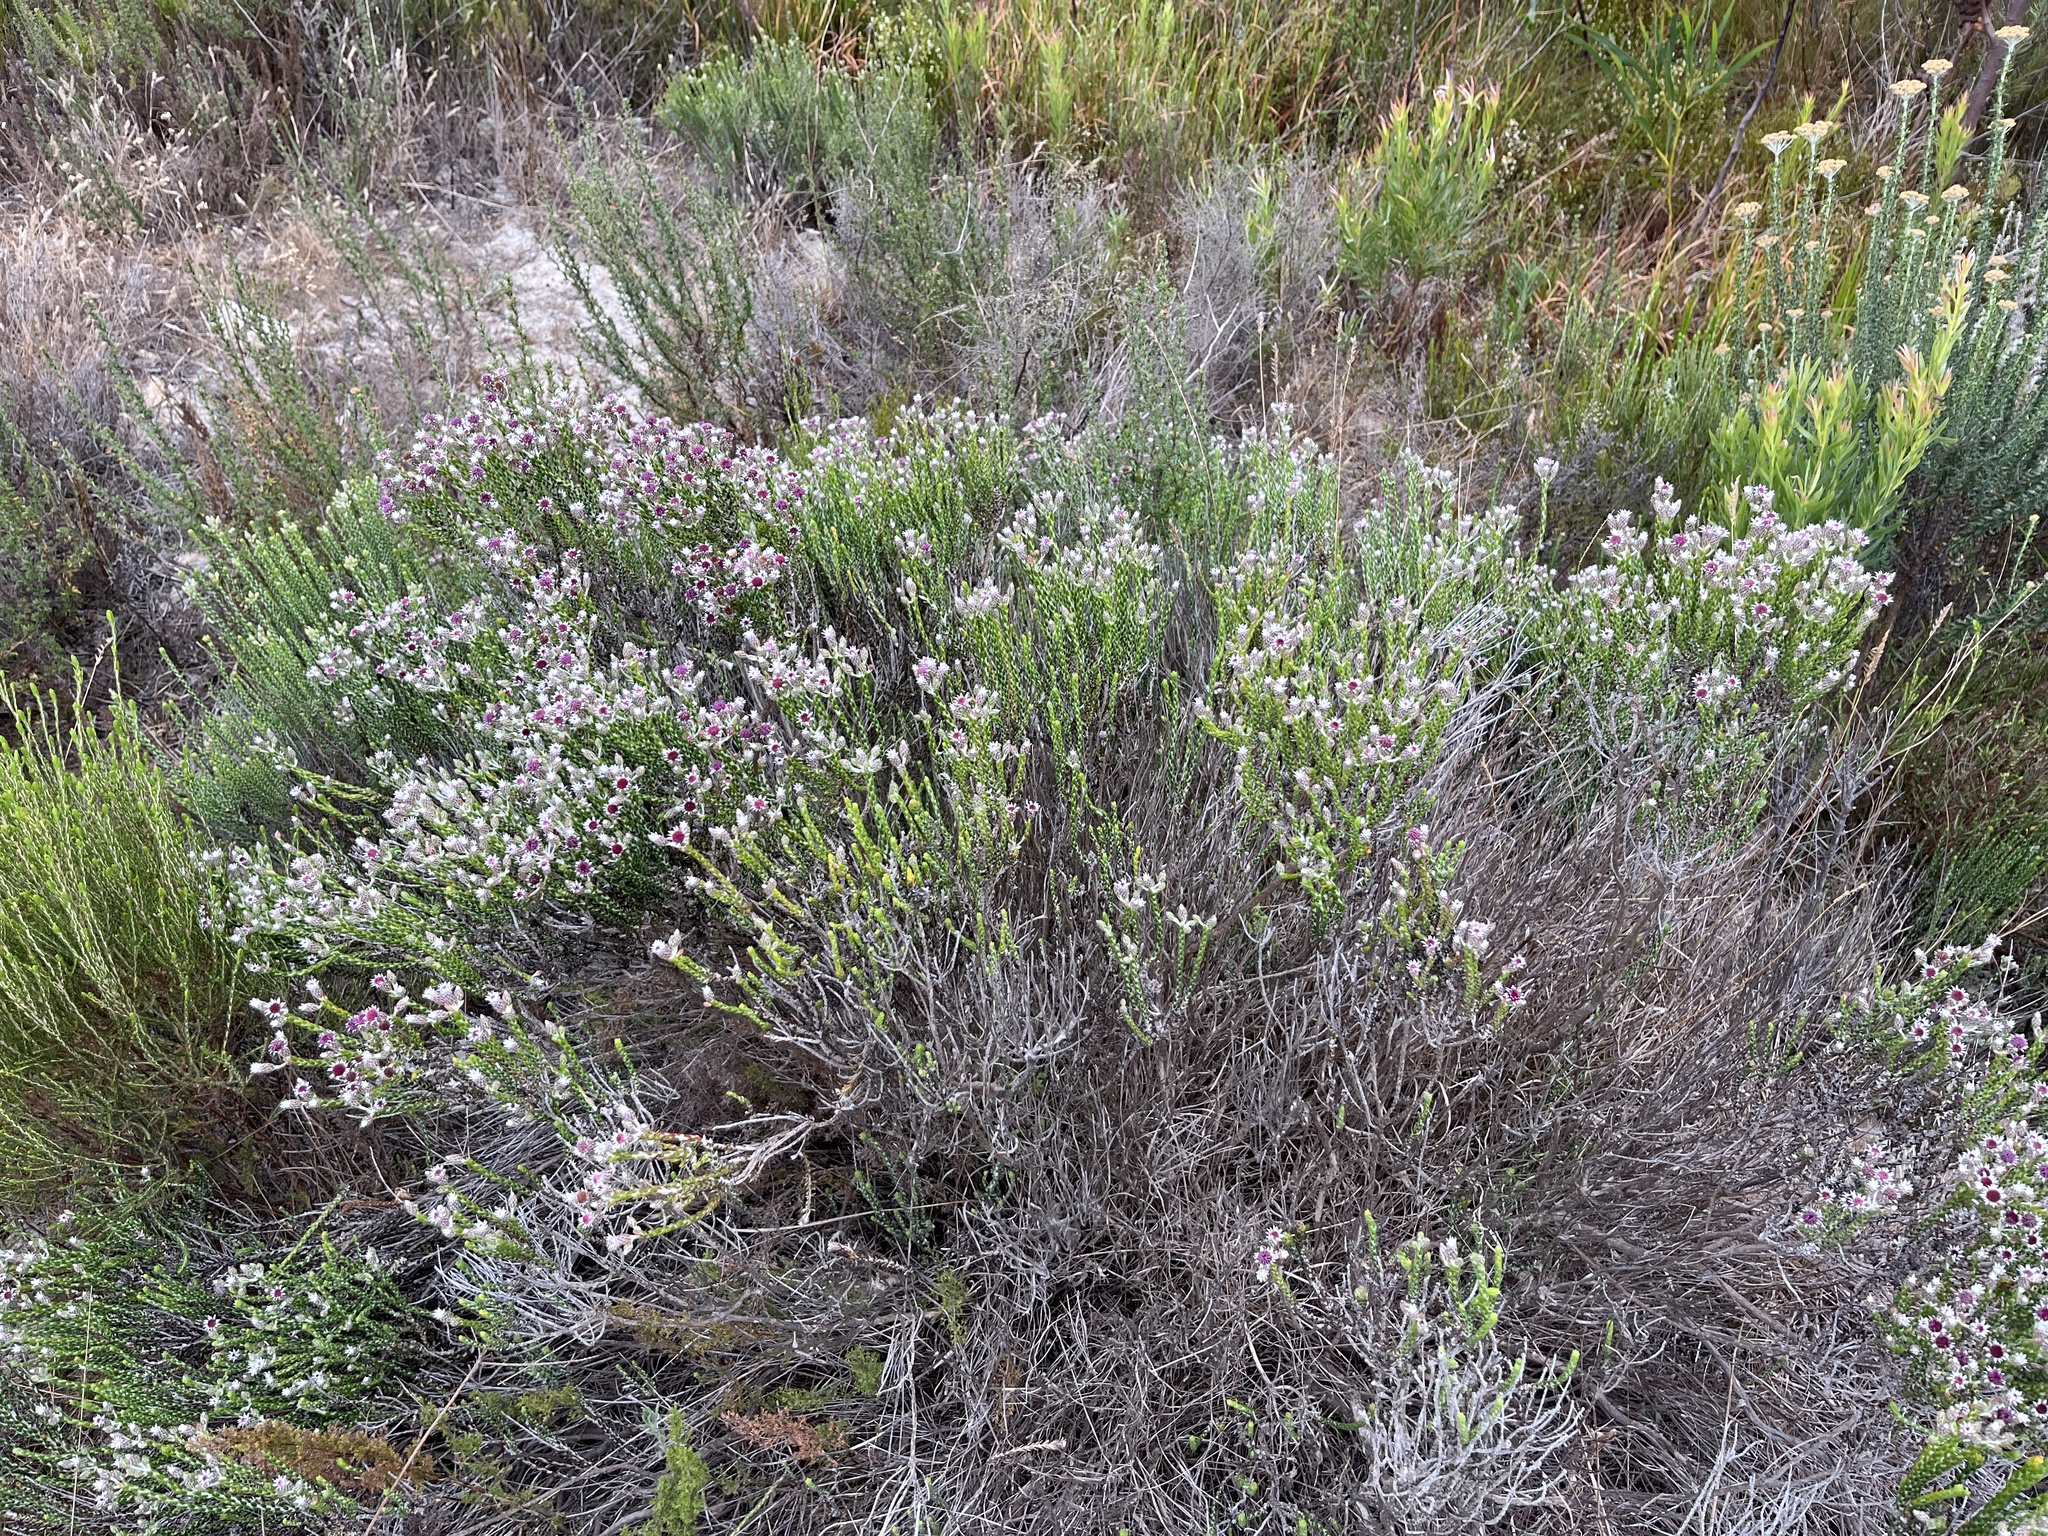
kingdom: Plantae
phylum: Tracheophyta
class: Magnoliopsida
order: Asterales
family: Asteraceae
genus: Lachnospermum
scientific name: Lachnospermum imbricatum
